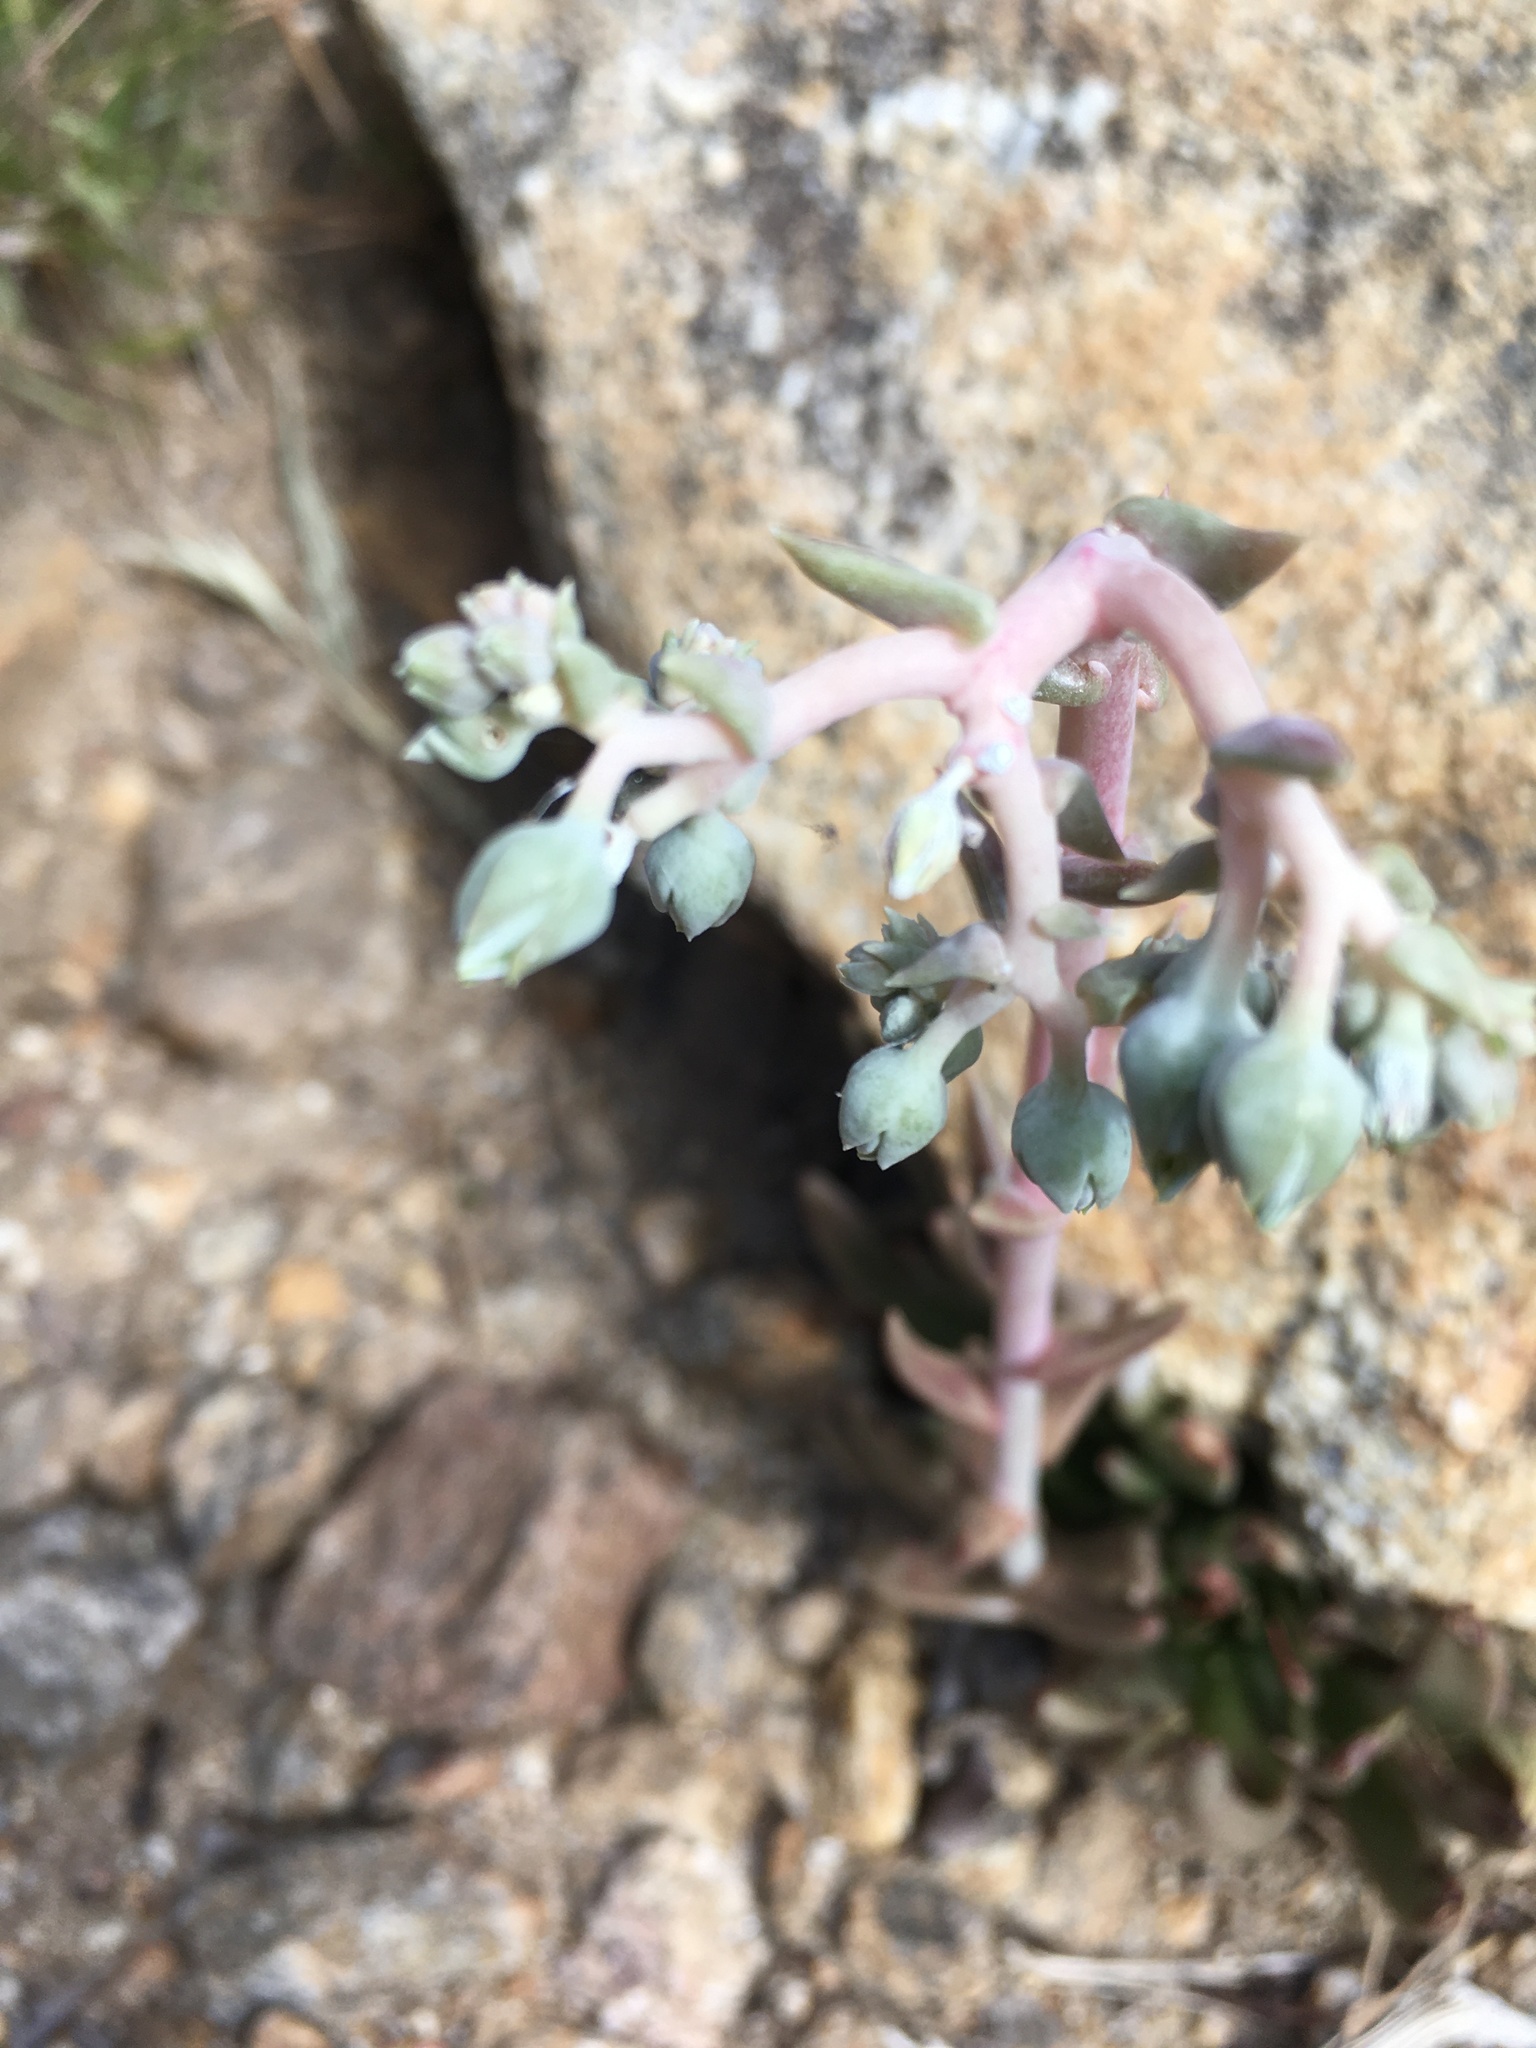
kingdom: Plantae
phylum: Tracheophyta
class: Magnoliopsida
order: Saxifragales
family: Crassulaceae
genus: Dudleya
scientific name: Dudleya saxosa
